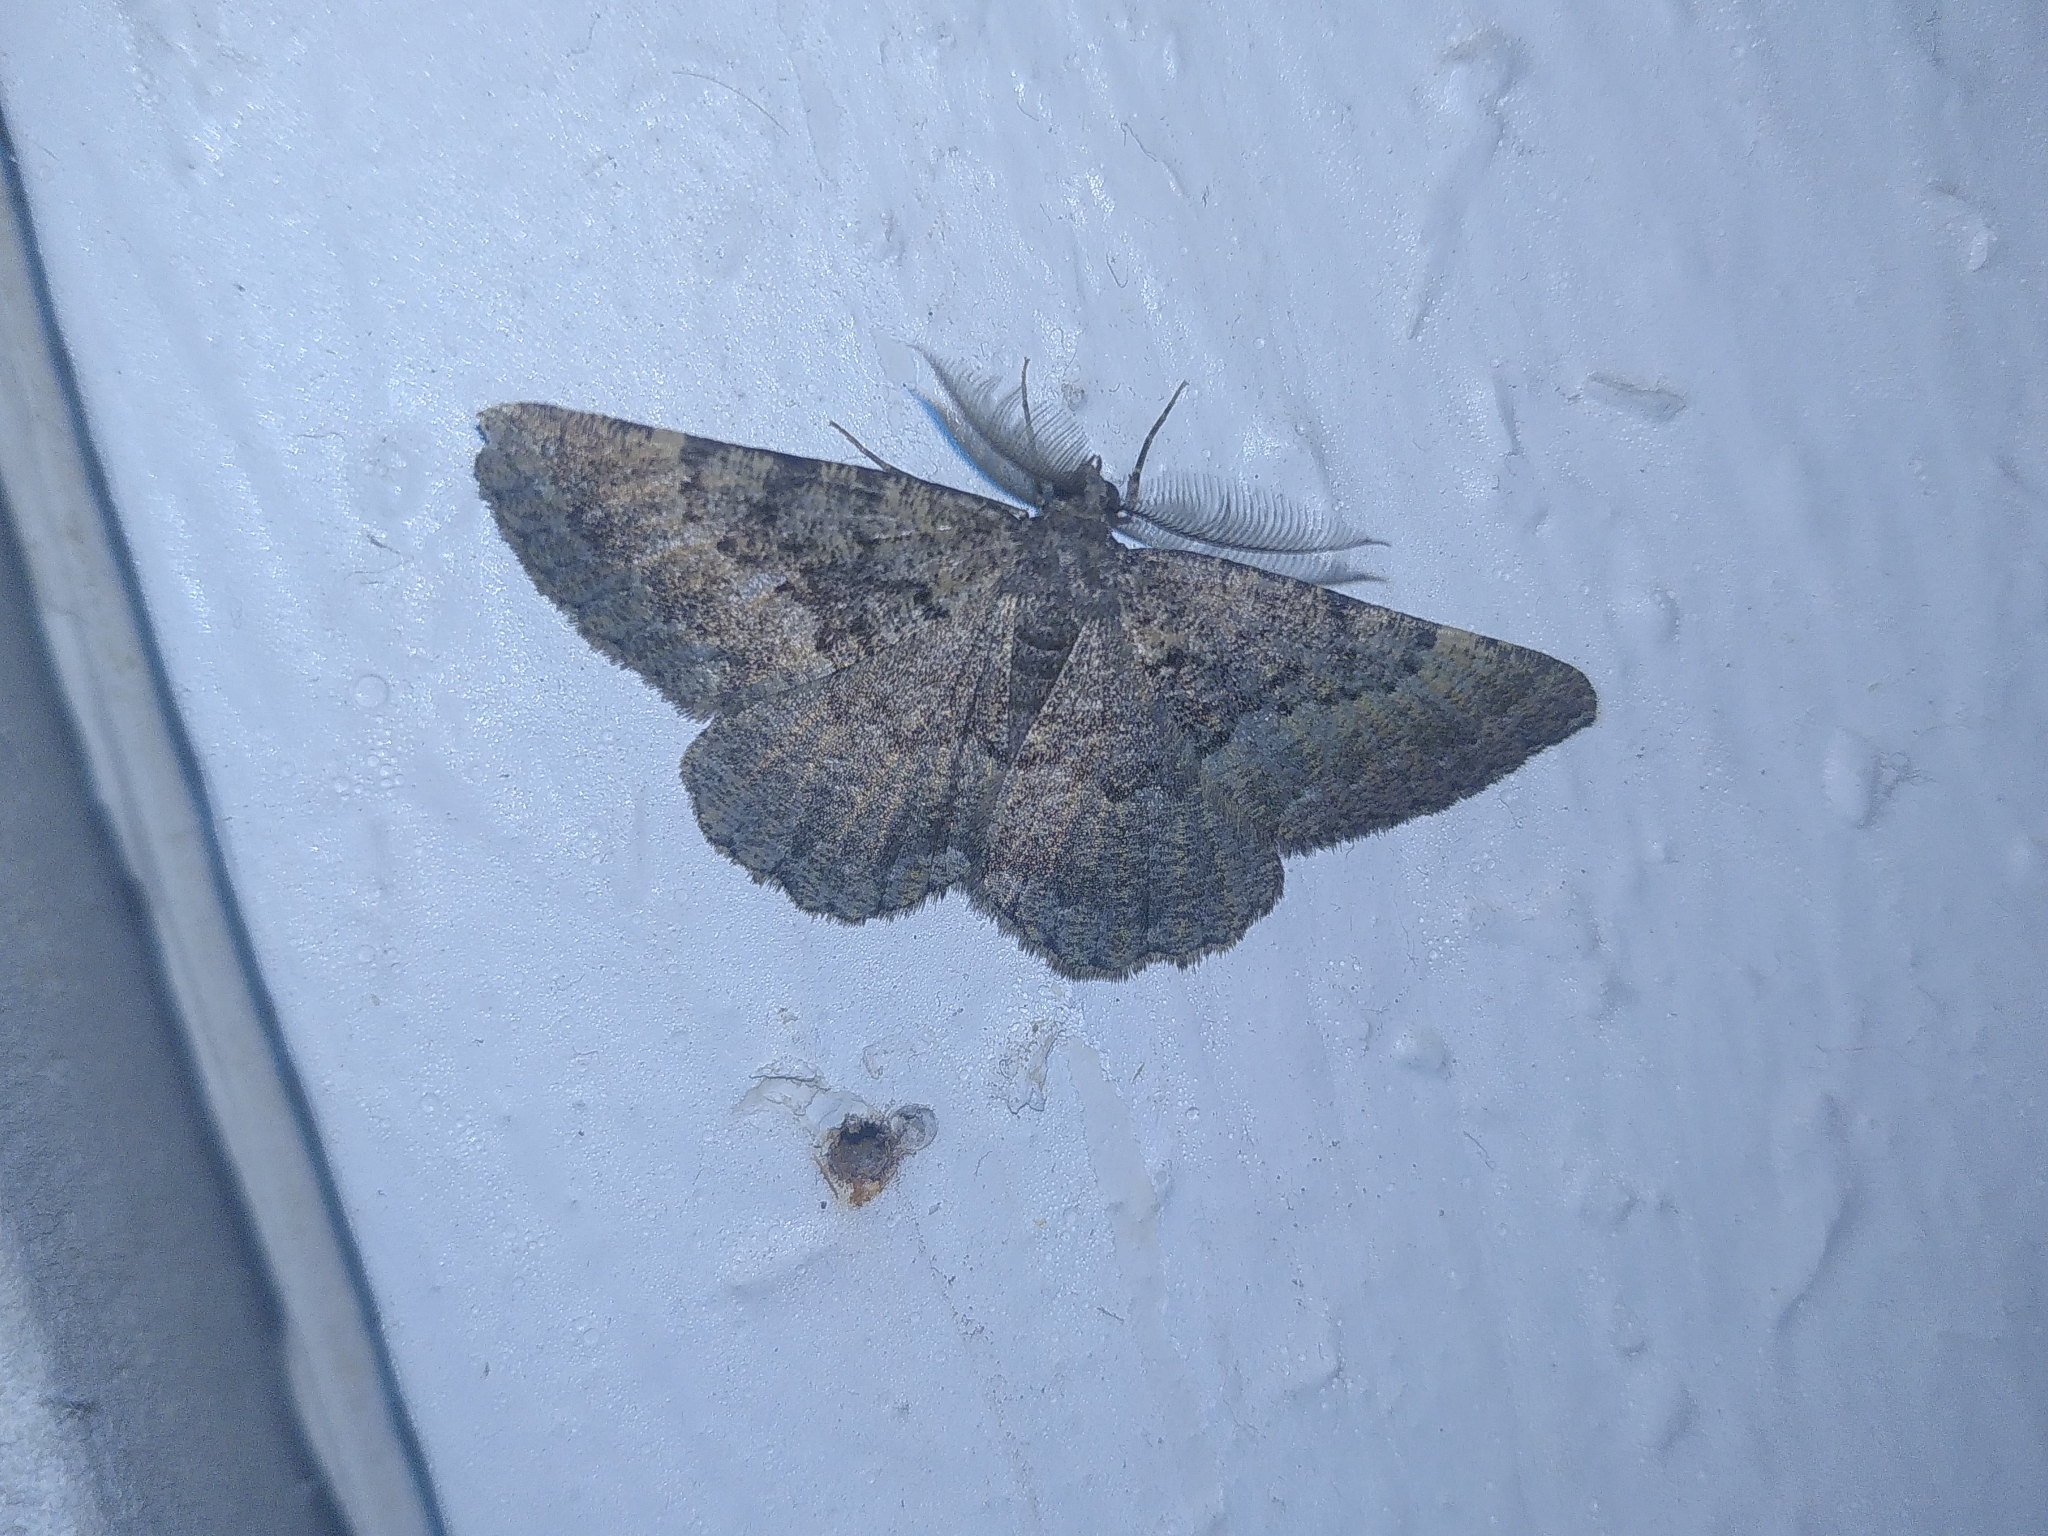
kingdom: Animalia
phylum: Arthropoda
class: Insecta
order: Lepidoptera
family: Geometridae
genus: Selidosema
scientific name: Selidosema taeniolaria
